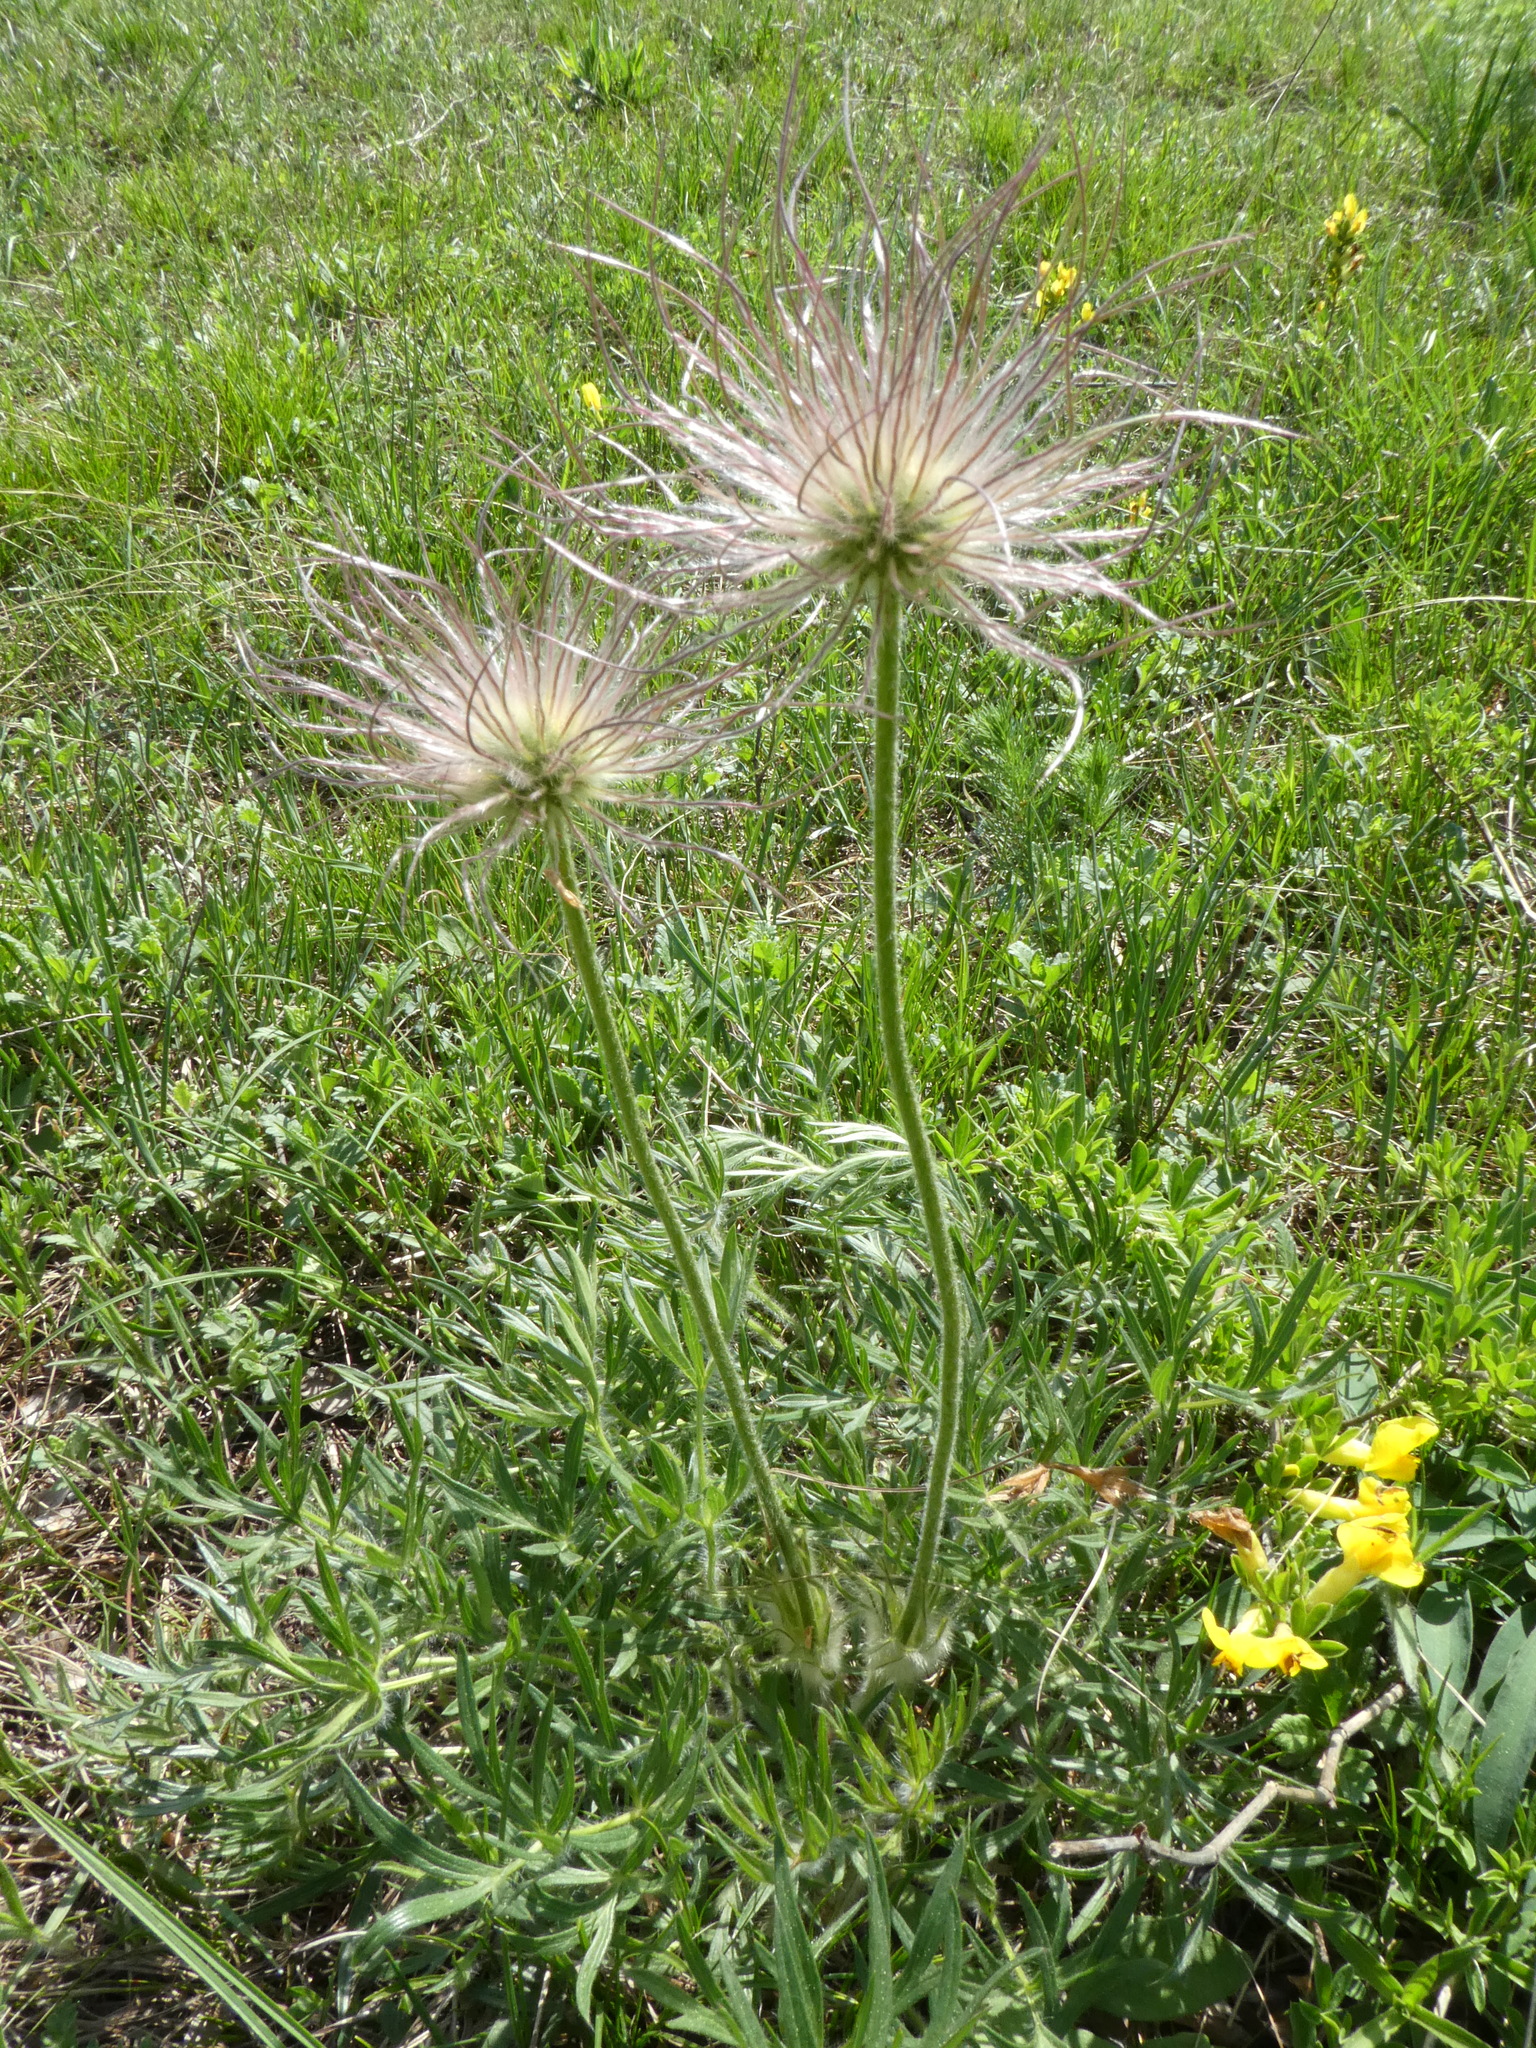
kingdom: Plantae
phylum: Tracheophyta
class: Magnoliopsida
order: Ranunculales
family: Ranunculaceae
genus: Pulsatilla
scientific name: Pulsatilla grandis
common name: Greater pasque flower
